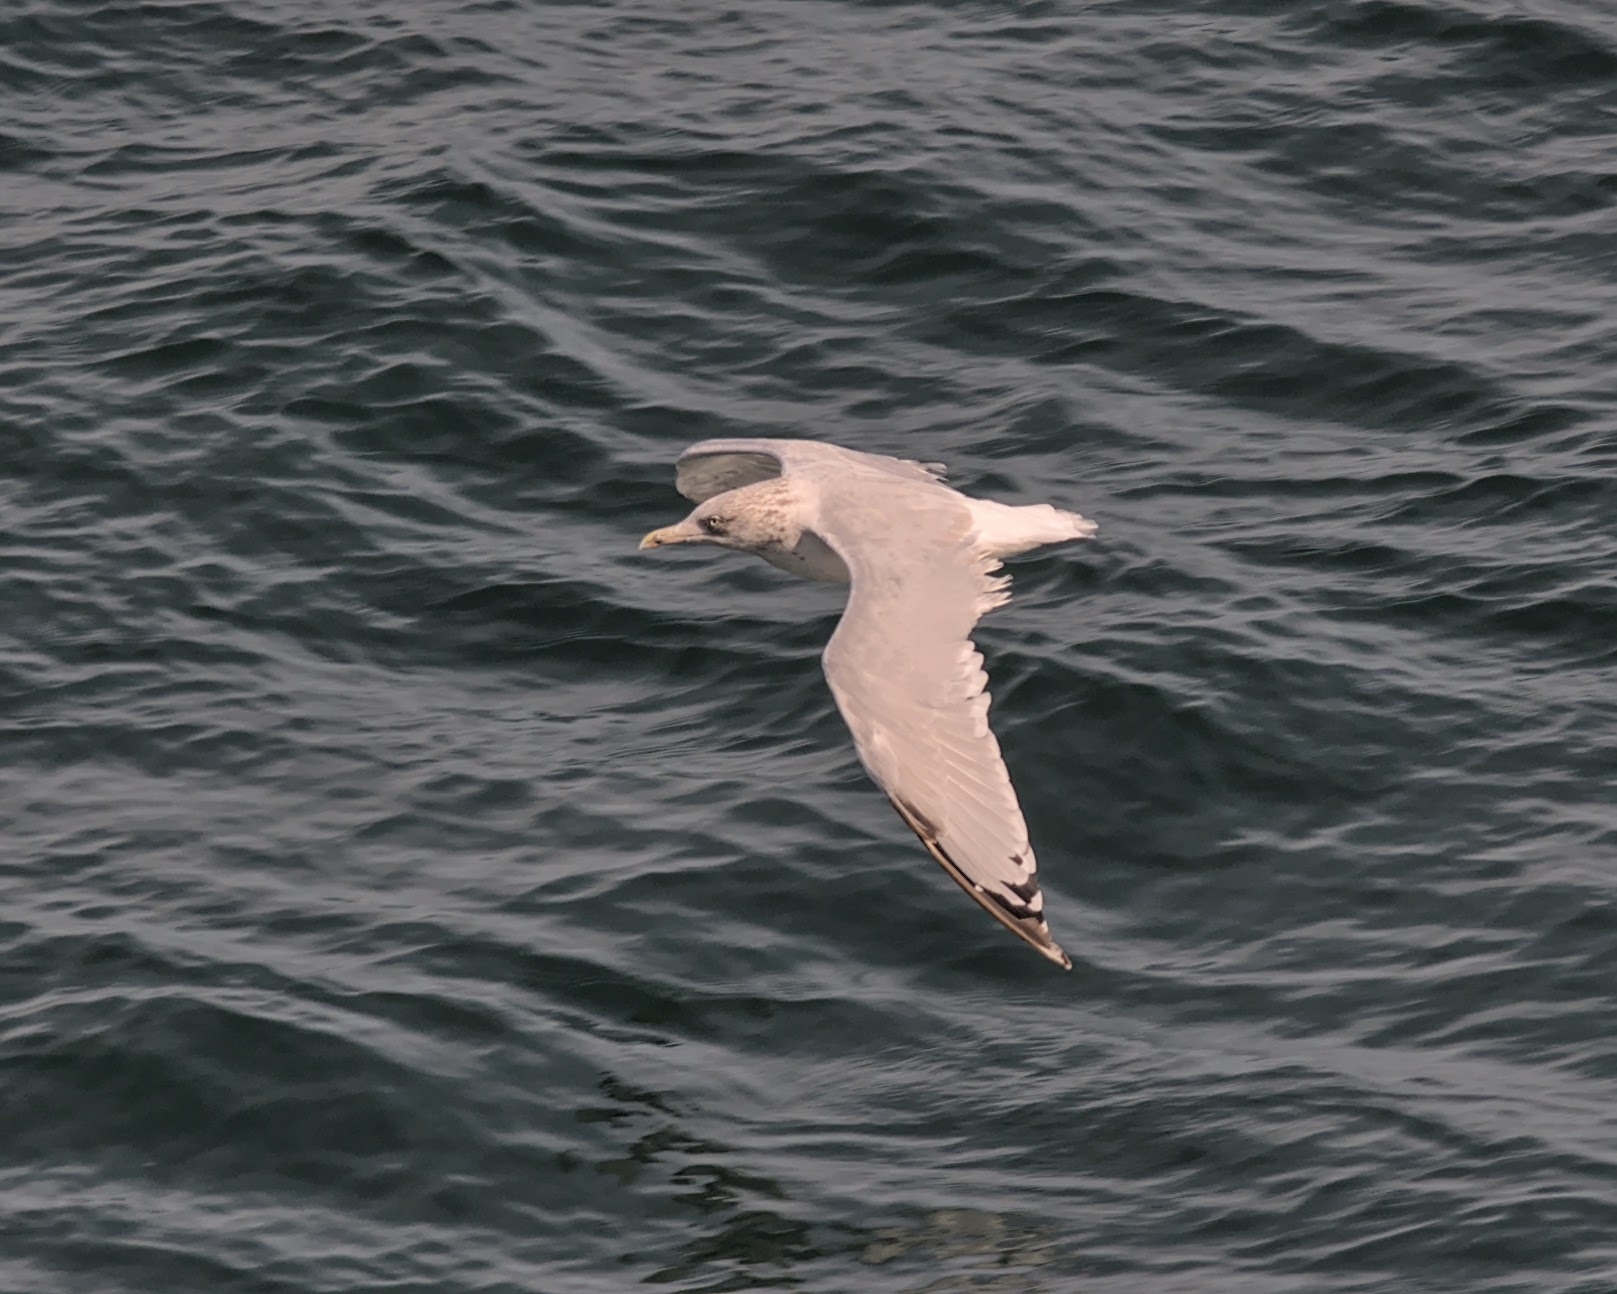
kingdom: Animalia
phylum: Chordata
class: Aves
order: Charadriiformes
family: Laridae
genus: Larus
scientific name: Larus argentatus
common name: Herring gull
